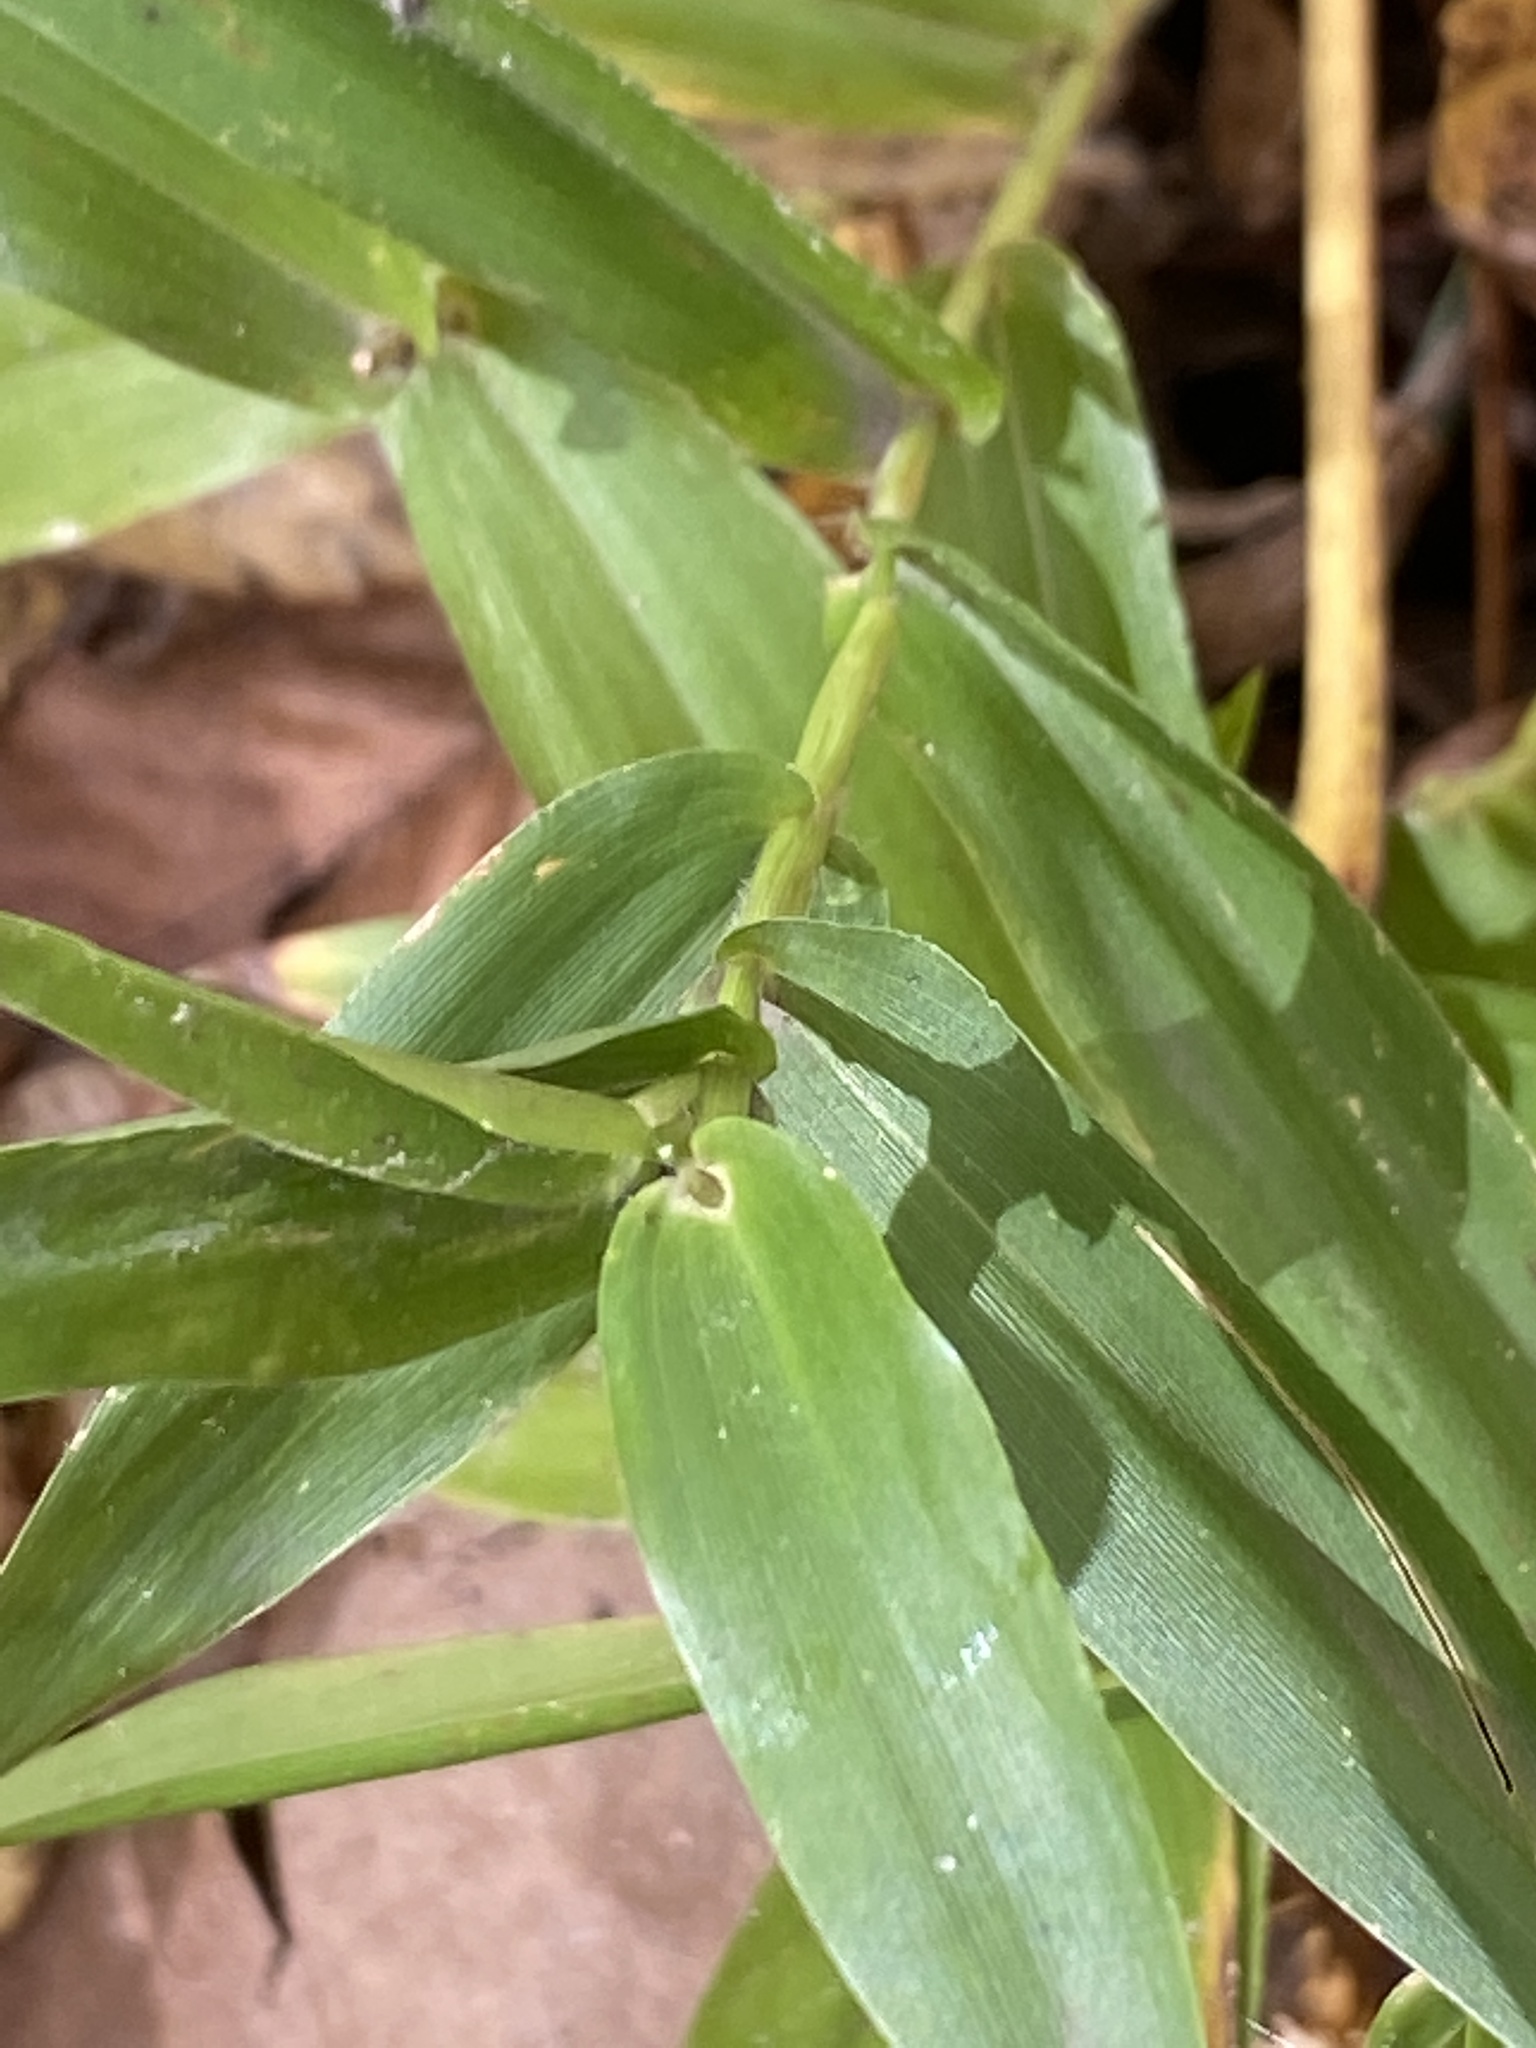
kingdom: Plantae
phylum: Tracheophyta
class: Liliopsida
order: Poales
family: Poaceae
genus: Dichanthelium
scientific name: Dichanthelium clandestinum
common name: Deer-tongue grass
